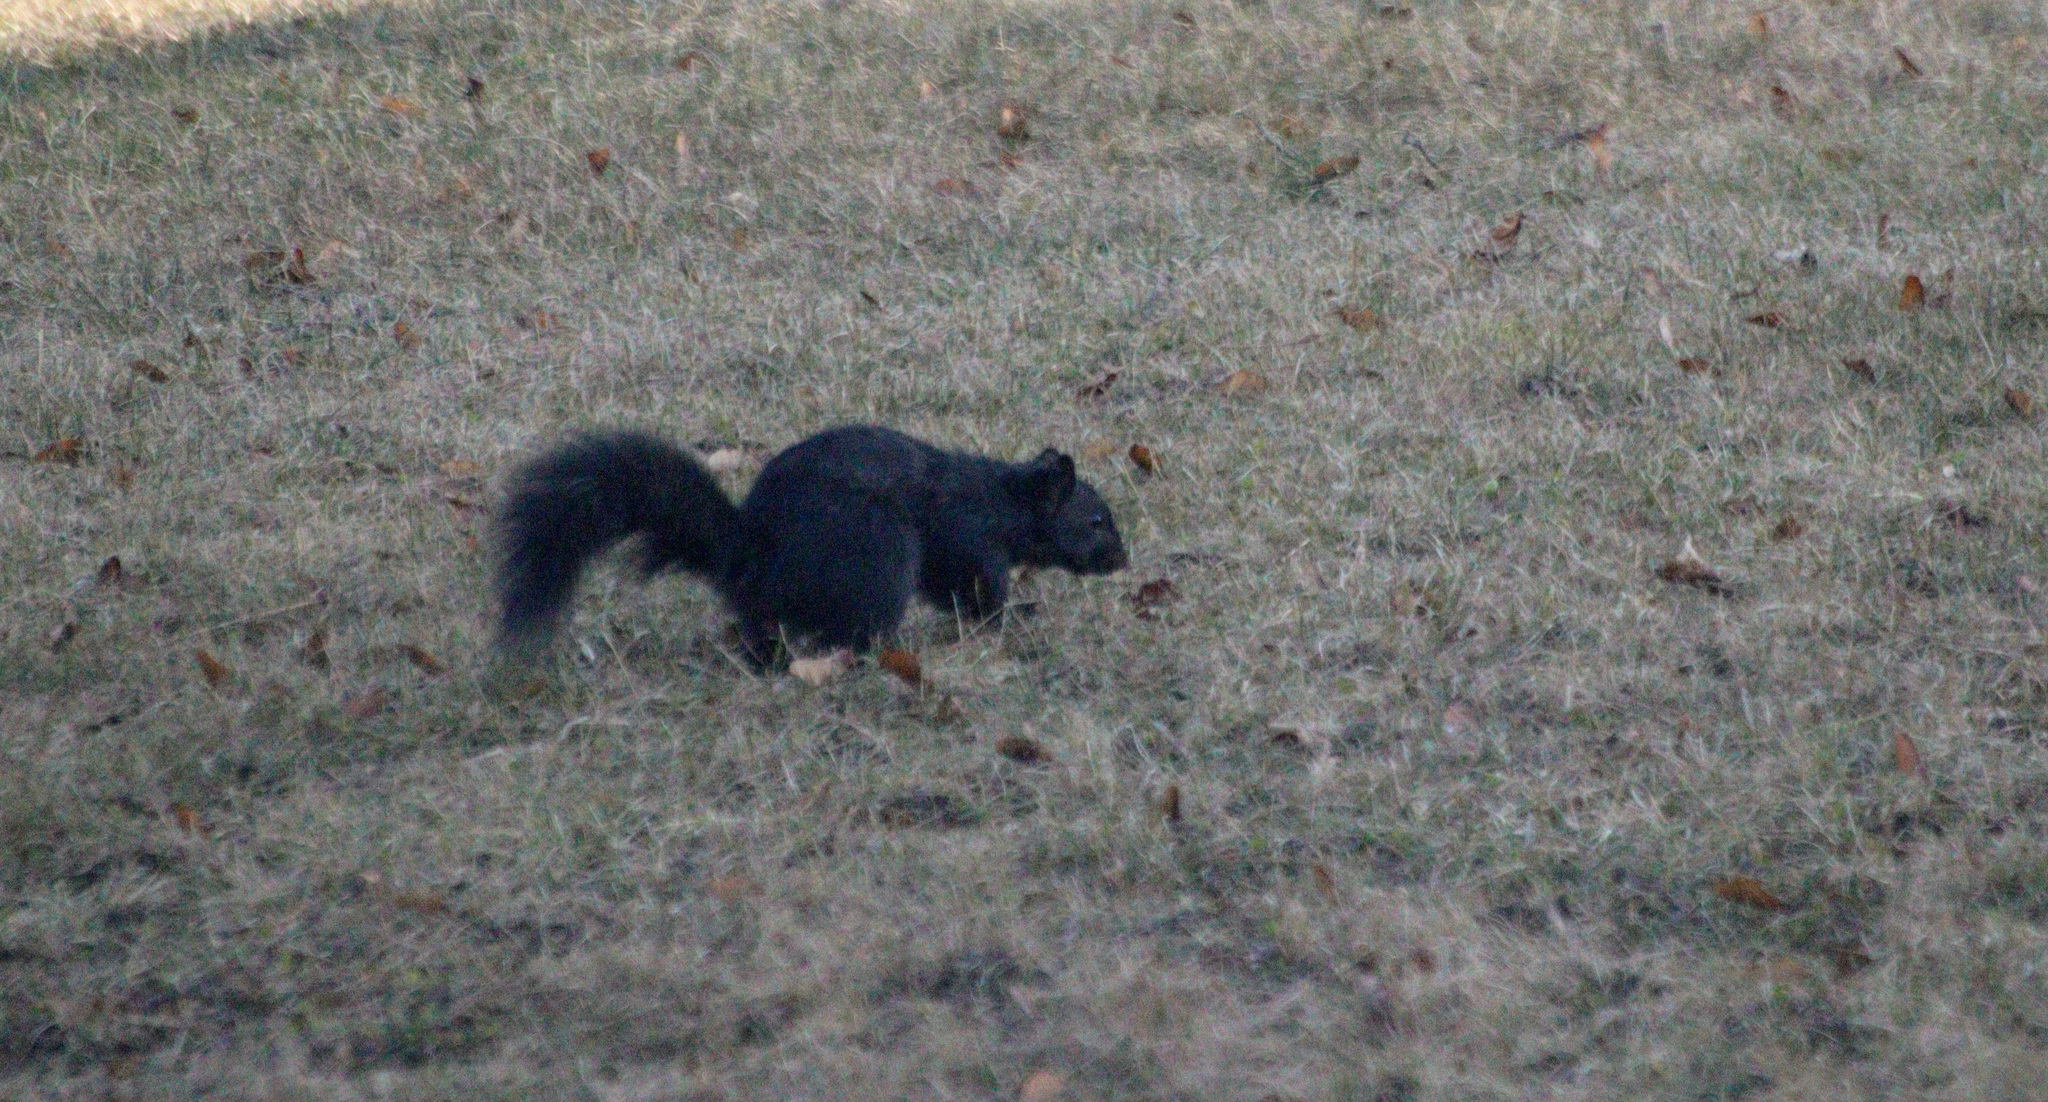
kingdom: Animalia
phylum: Chordata
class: Mammalia
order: Rodentia
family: Sciuridae
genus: Sciurus
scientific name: Sciurus carolinensis
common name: Eastern gray squirrel
